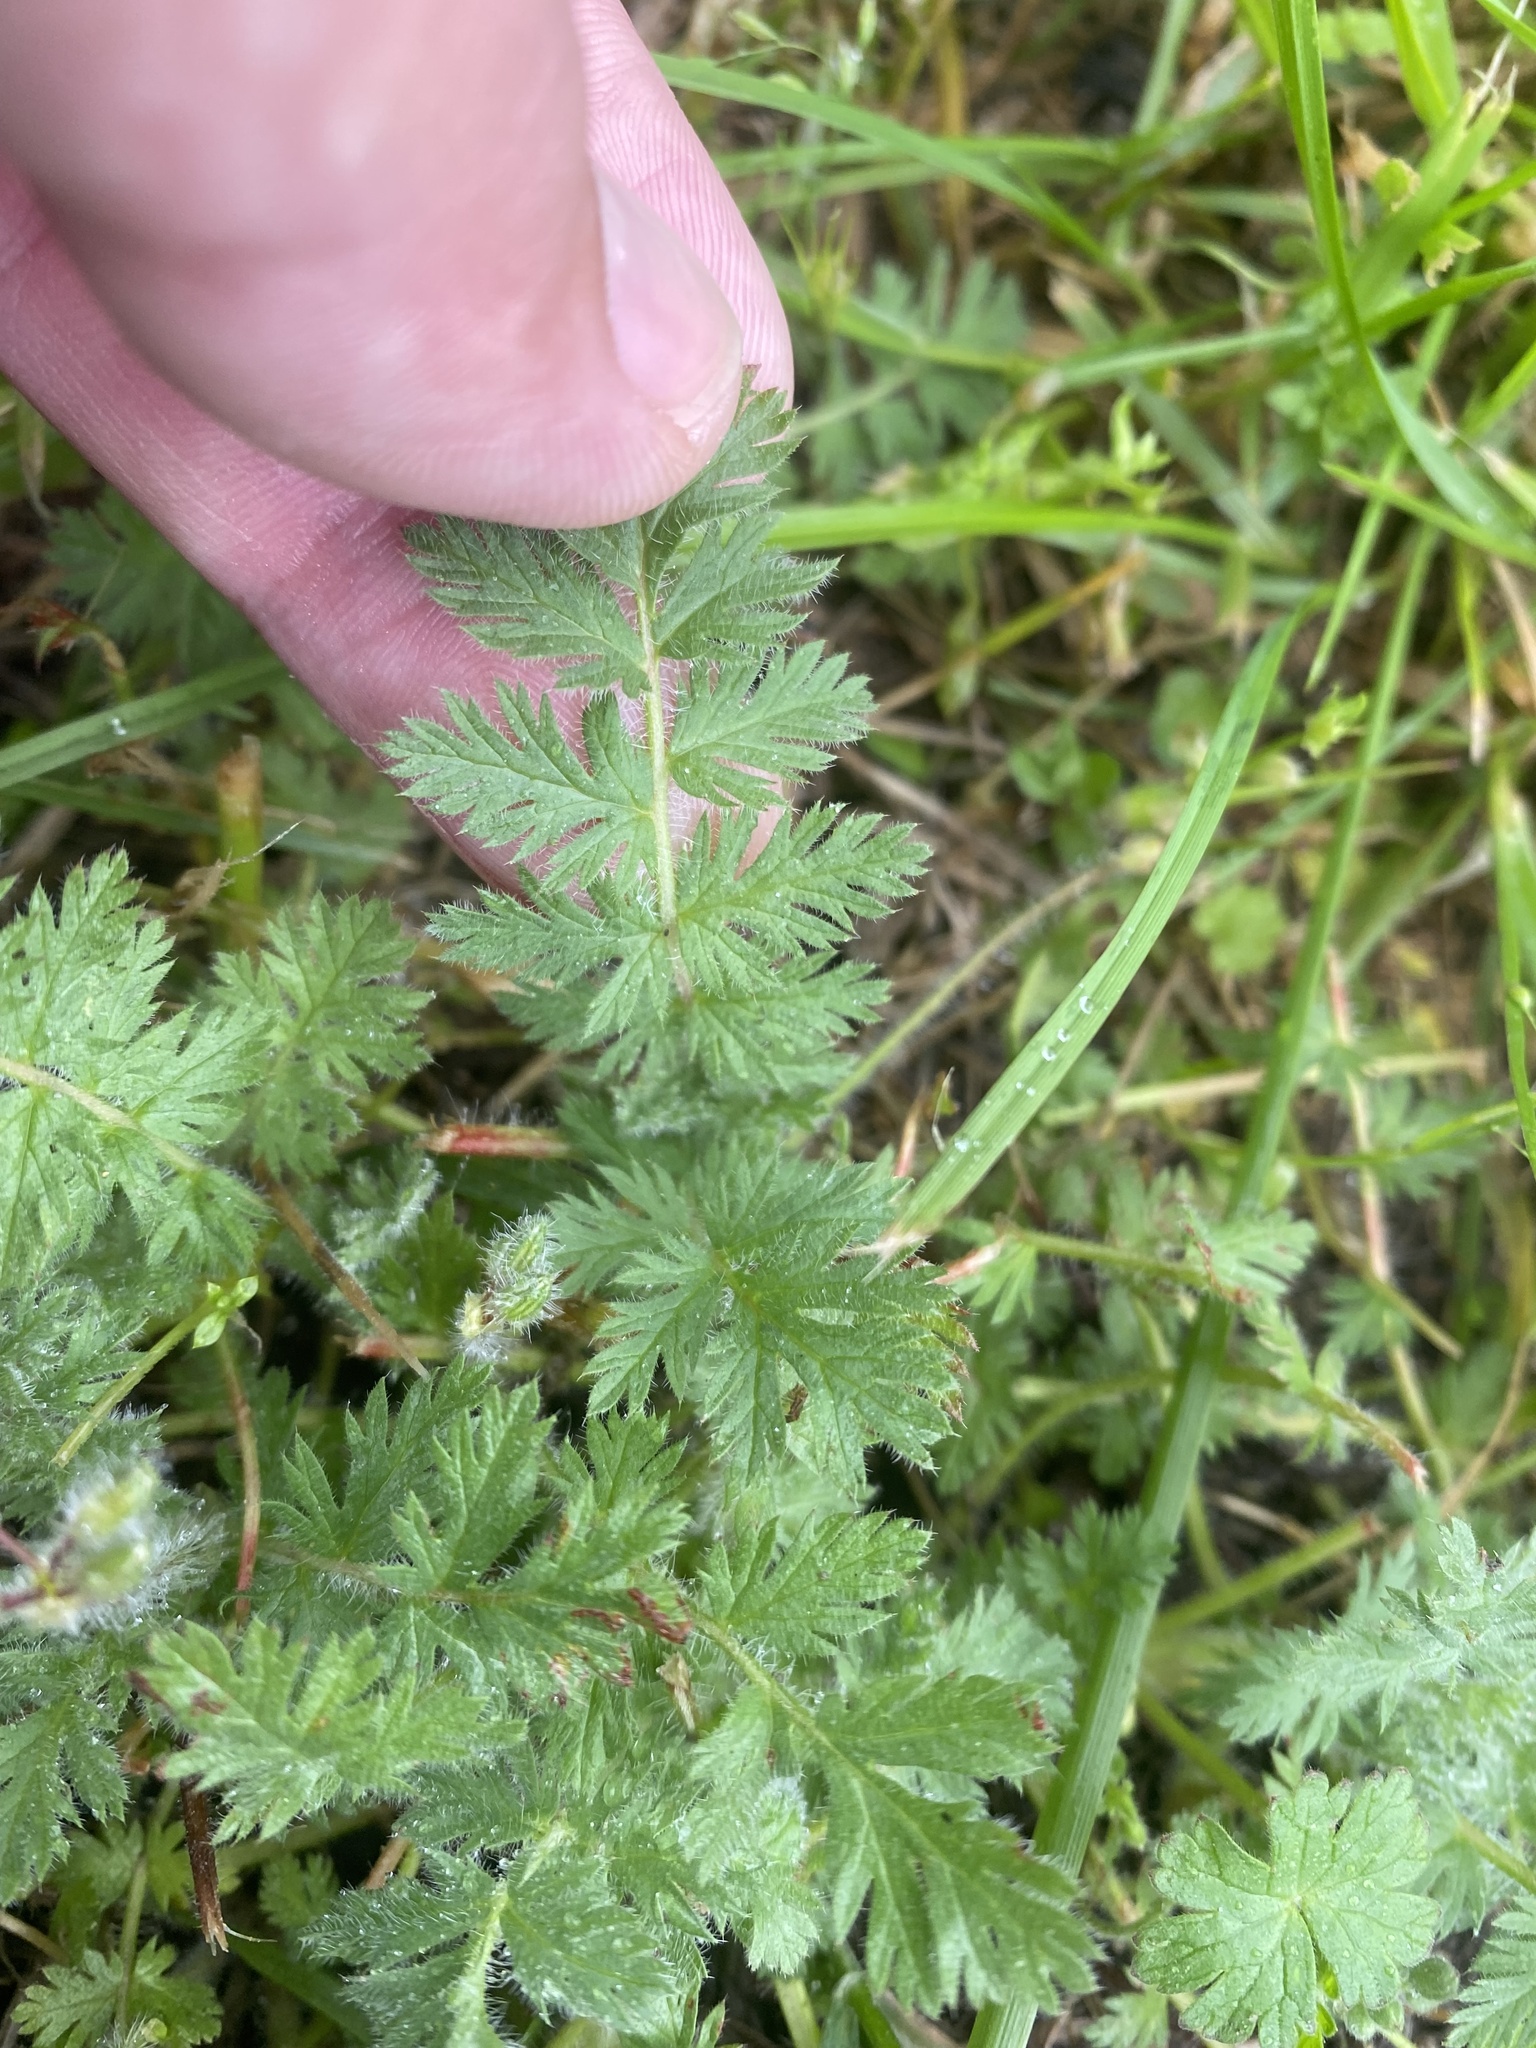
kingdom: Plantae
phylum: Tracheophyta
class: Magnoliopsida
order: Geraniales
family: Geraniaceae
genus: Erodium
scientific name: Erodium cicutarium
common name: Common stork's-bill
